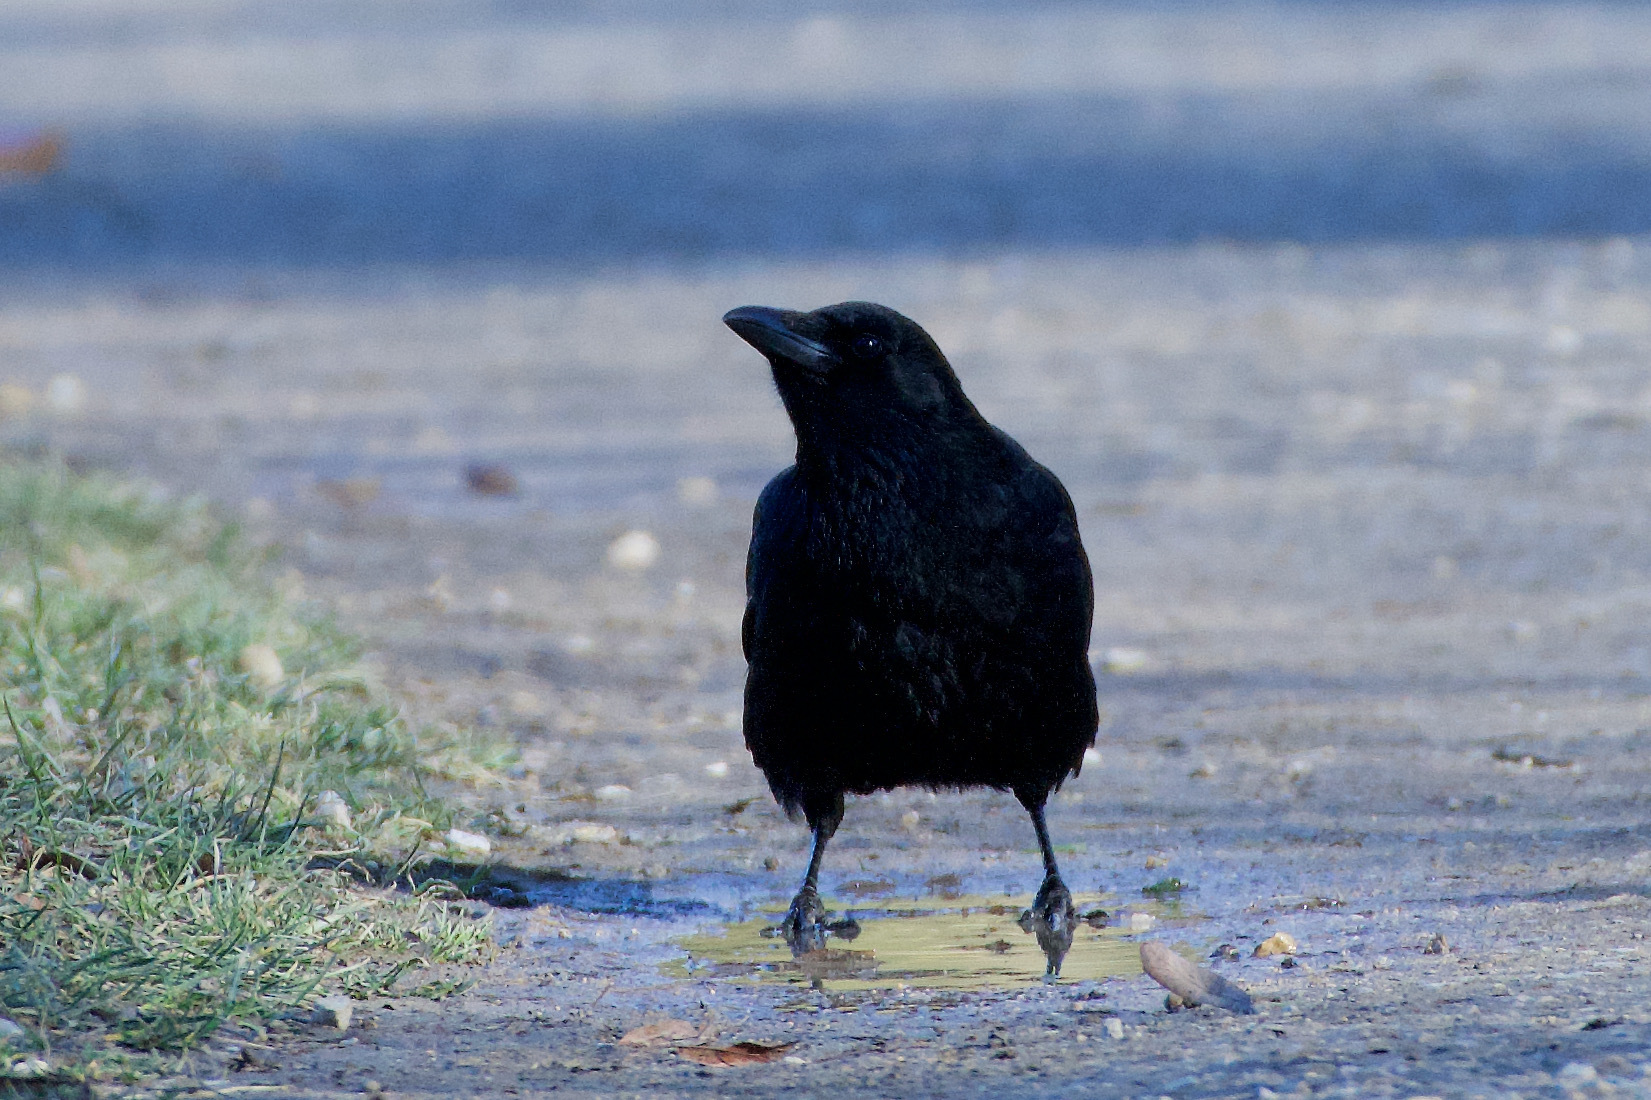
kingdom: Animalia
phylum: Chordata
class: Aves
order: Passeriformes
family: Corvidae
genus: Corvus
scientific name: Corvus corone
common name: Carrion crow
